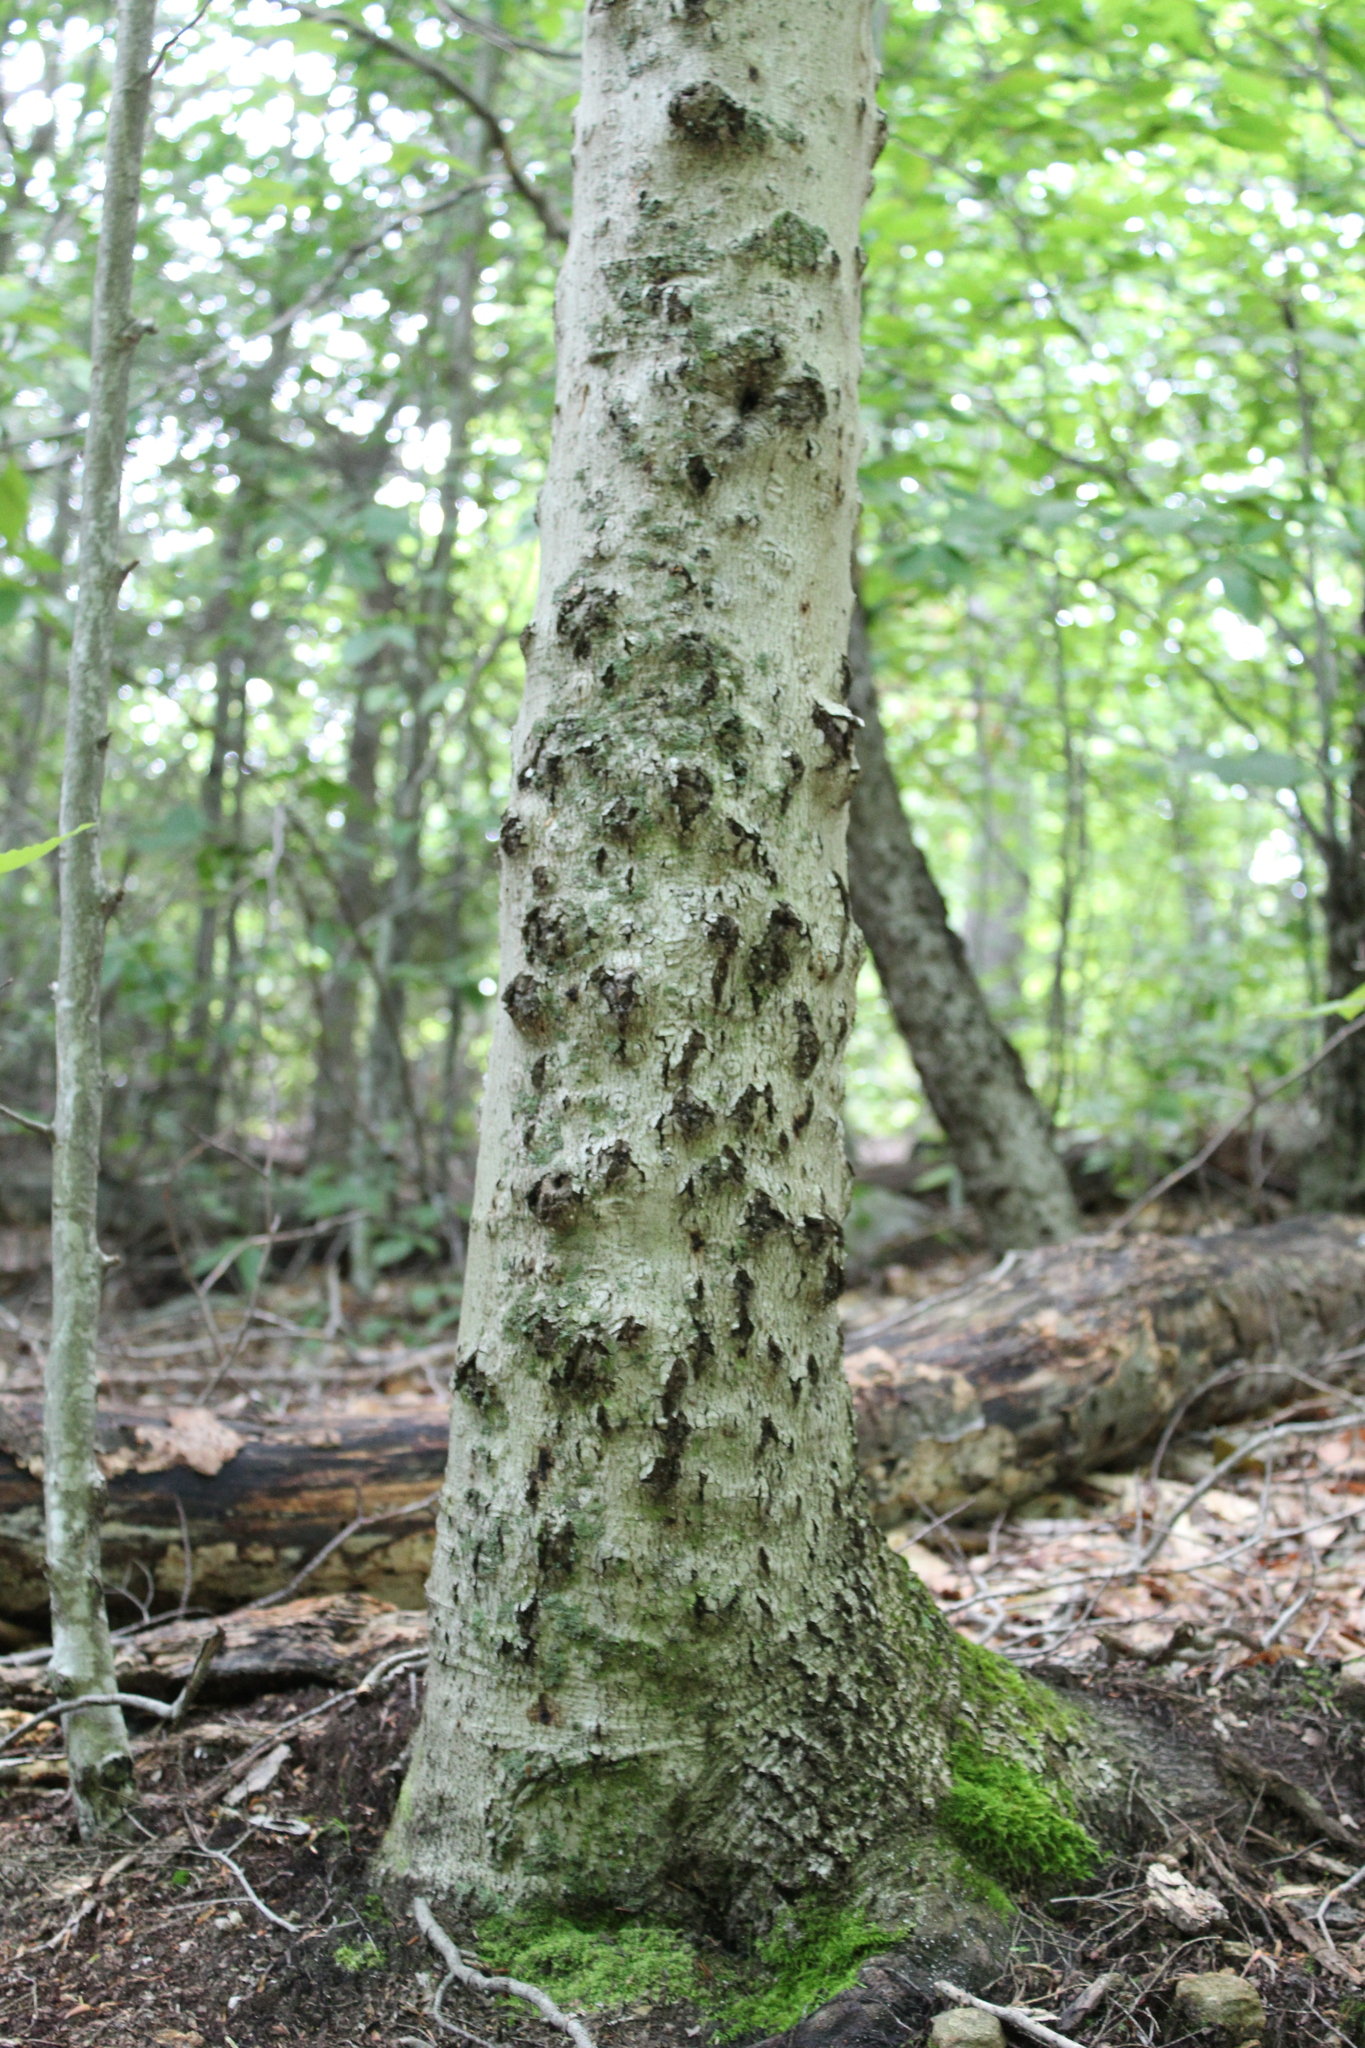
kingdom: Plantae
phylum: Tracheophyta
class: Magnoliopsida
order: Fagales
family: Fagaceae
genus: Fagus
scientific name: Fagus grandifolia
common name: American beech
